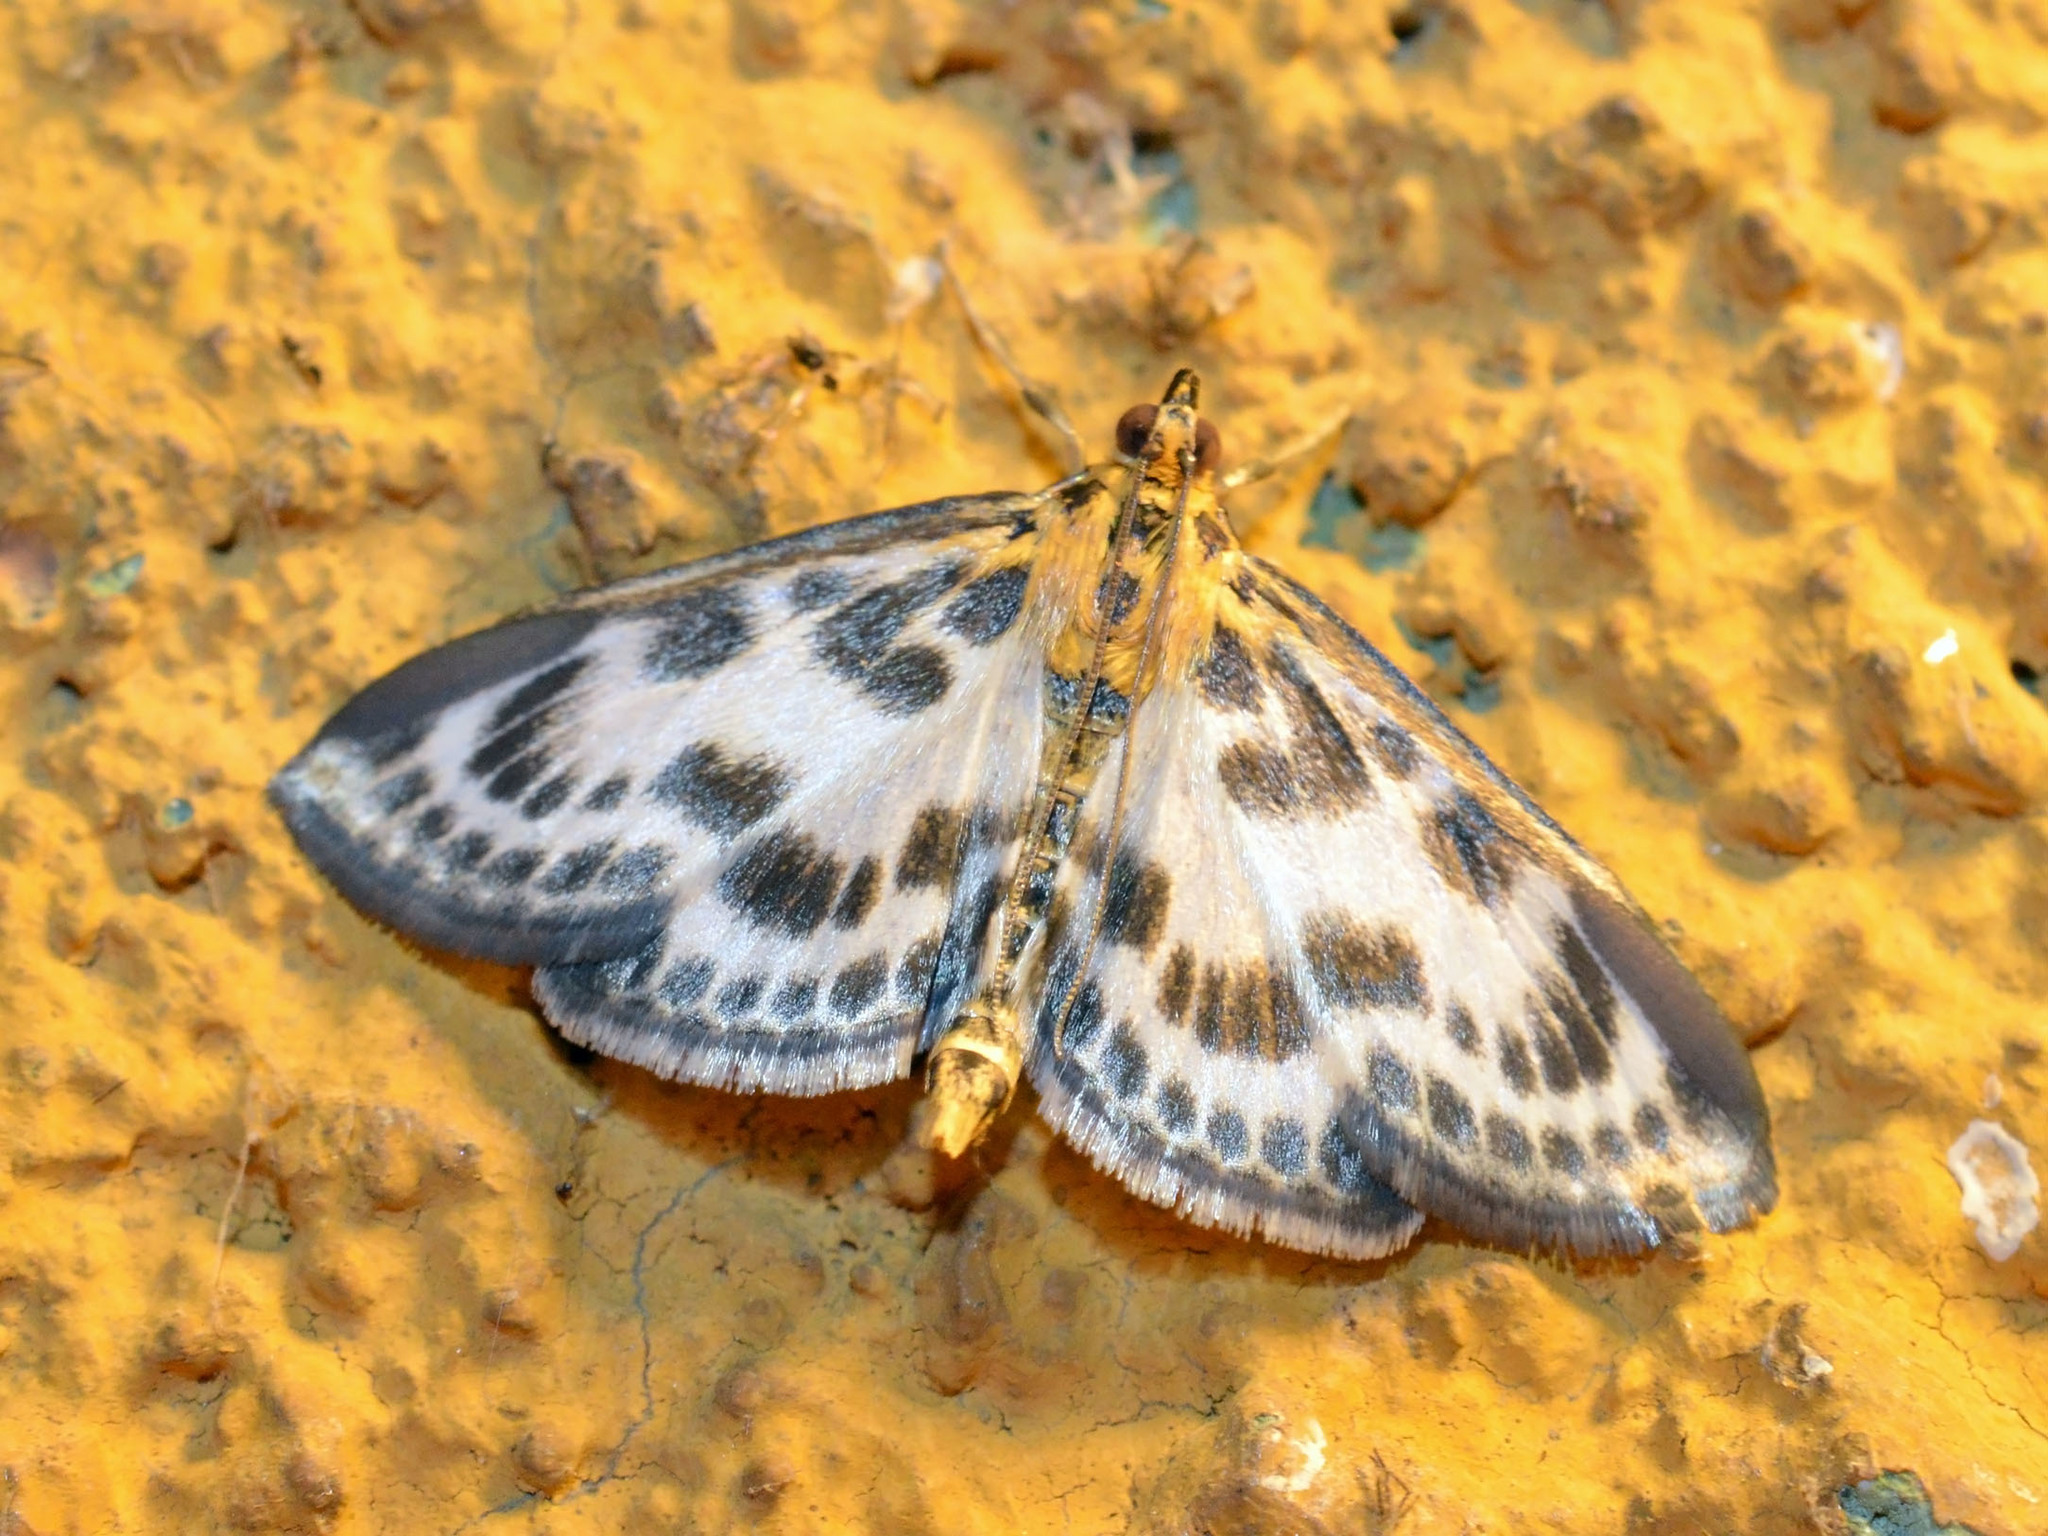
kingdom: Animalia
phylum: Arthropoda
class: Insecta
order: Lepidoptera
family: Crambidae
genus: Anania
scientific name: Anania hortulata
